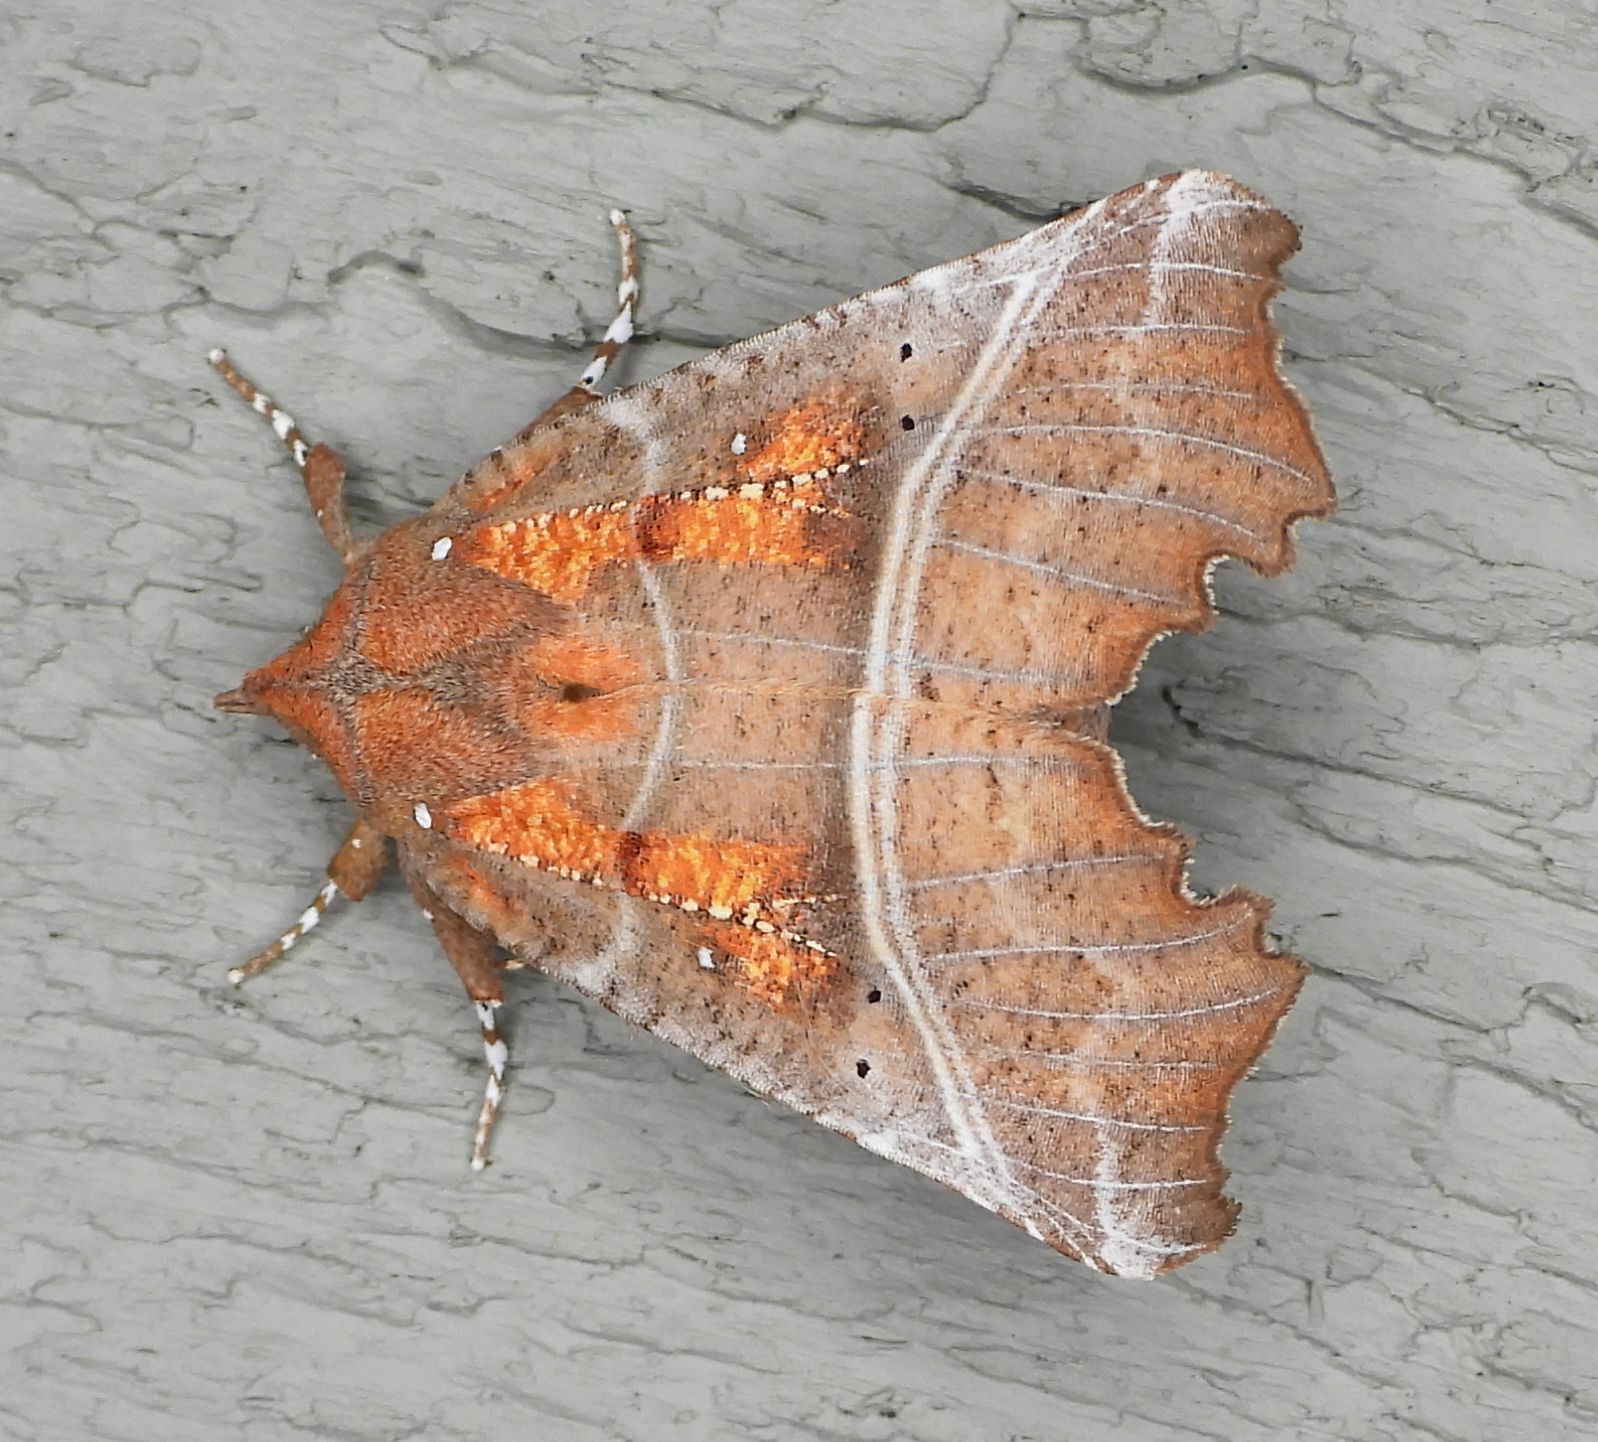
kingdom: Animalia
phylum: Arthropoda
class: Insecta
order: Lepidoptera
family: Erebidae
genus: Scoliopteryx
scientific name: Scoliopteryx libatrix
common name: Herald
